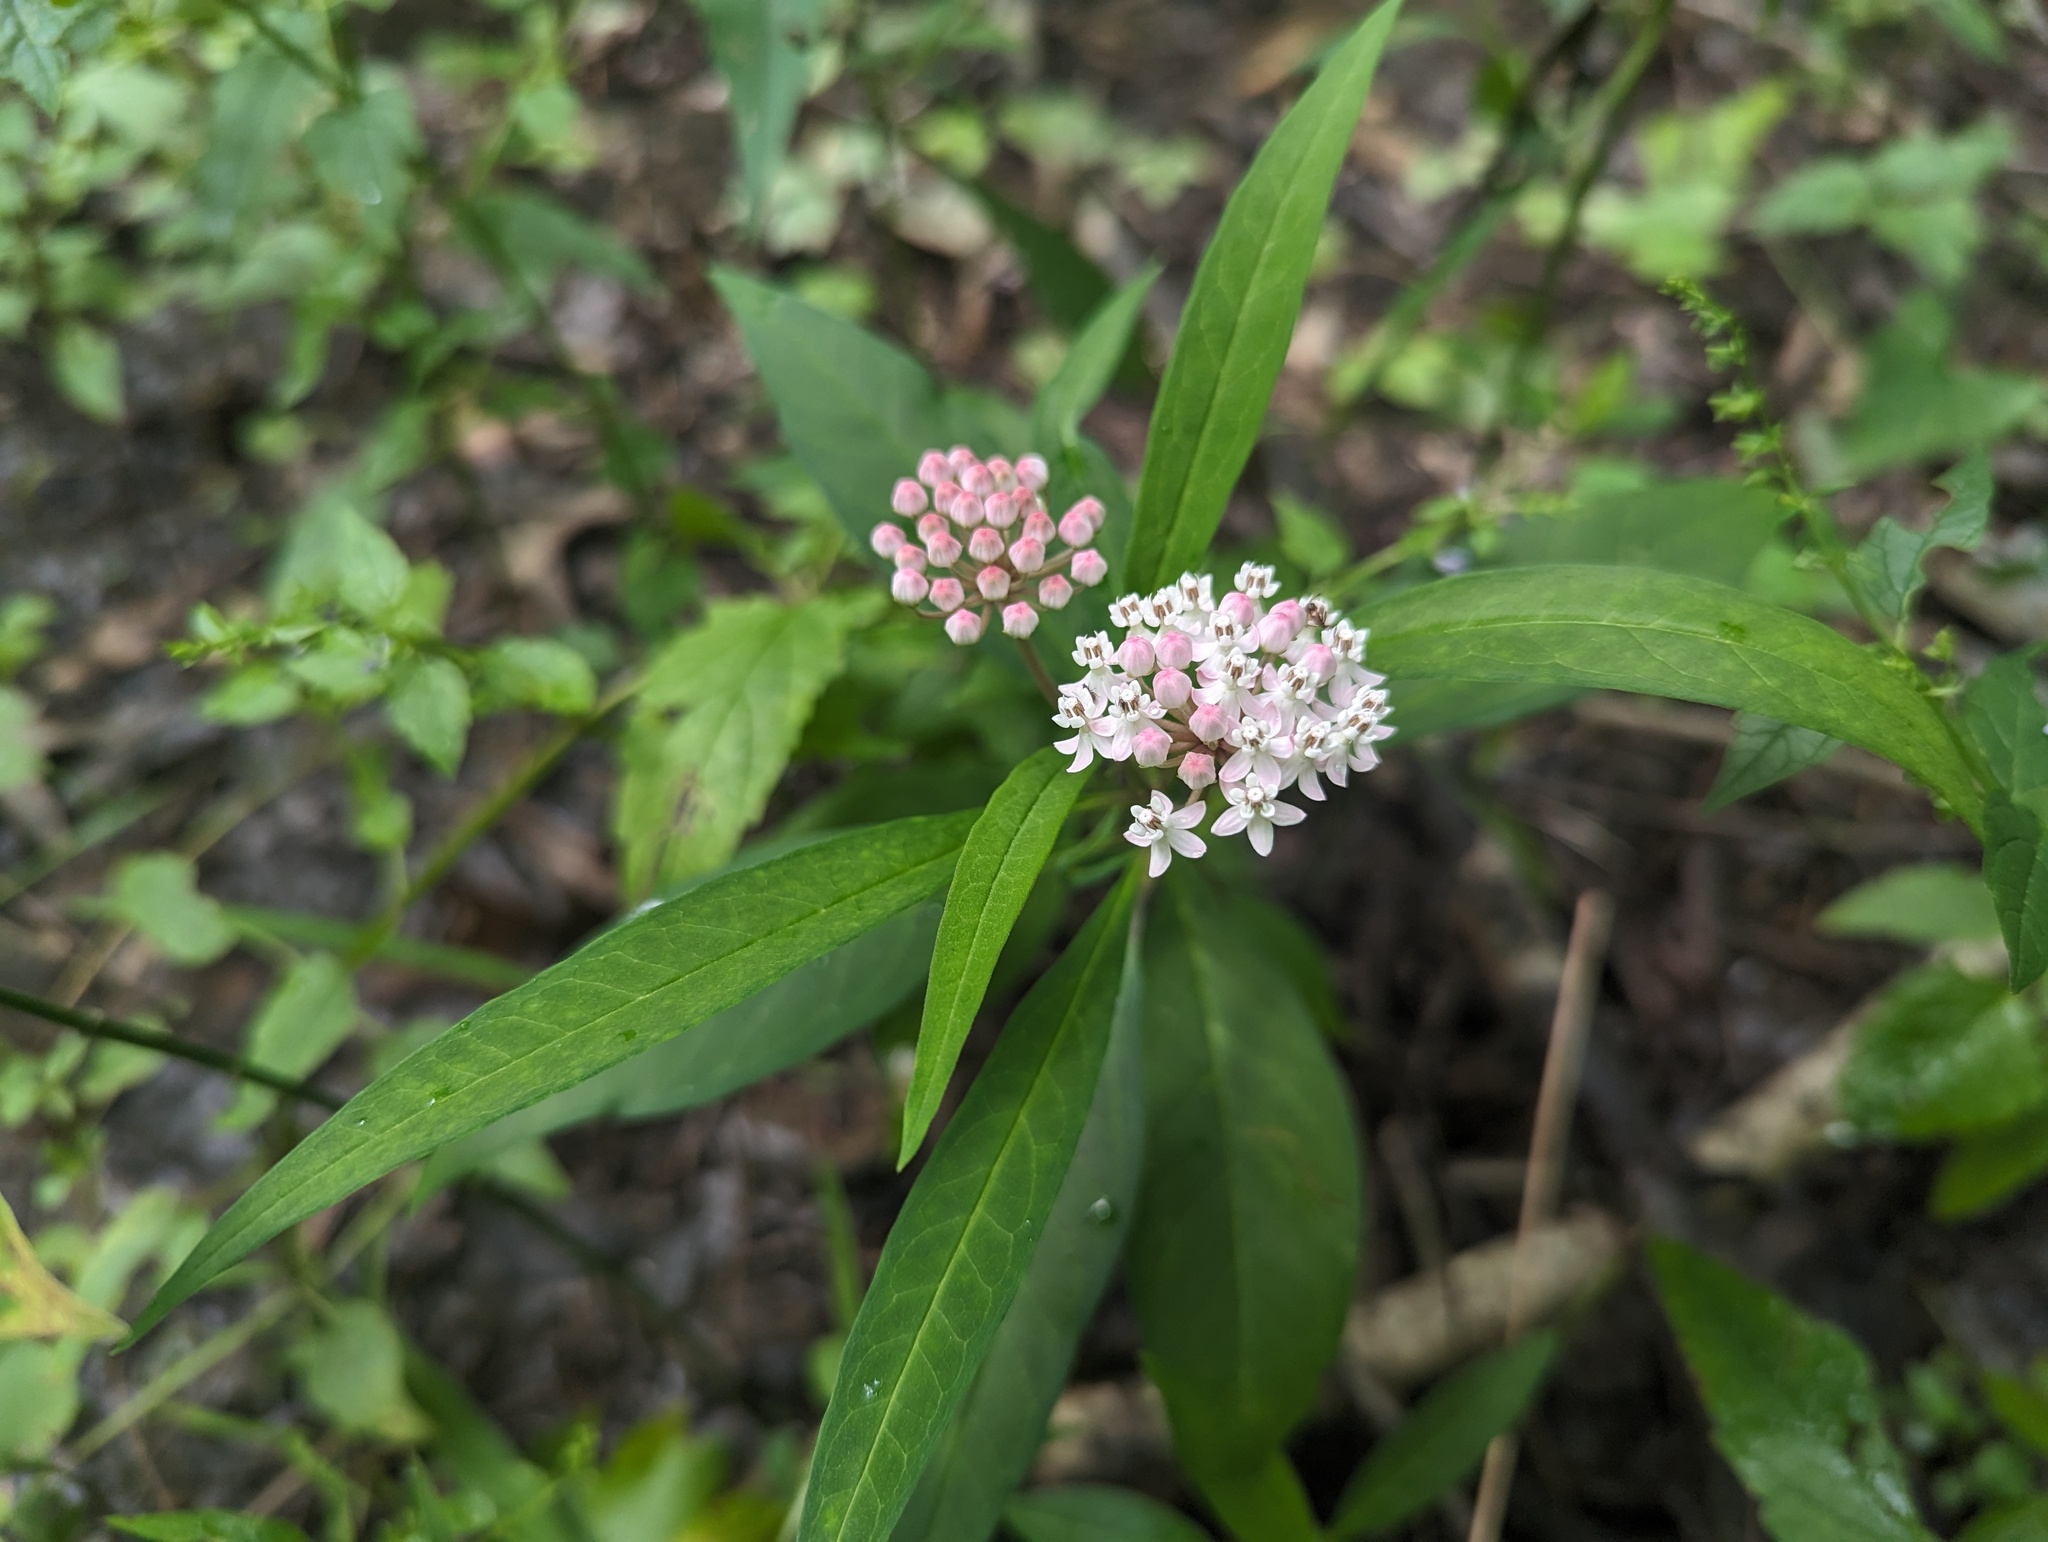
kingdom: Plantae
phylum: Tracheophyta
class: Magnoliopsida
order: Gentianales
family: Apocynaceae
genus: Asclepias
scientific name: Asclepias perennis
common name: Smooth-seed milkweed
